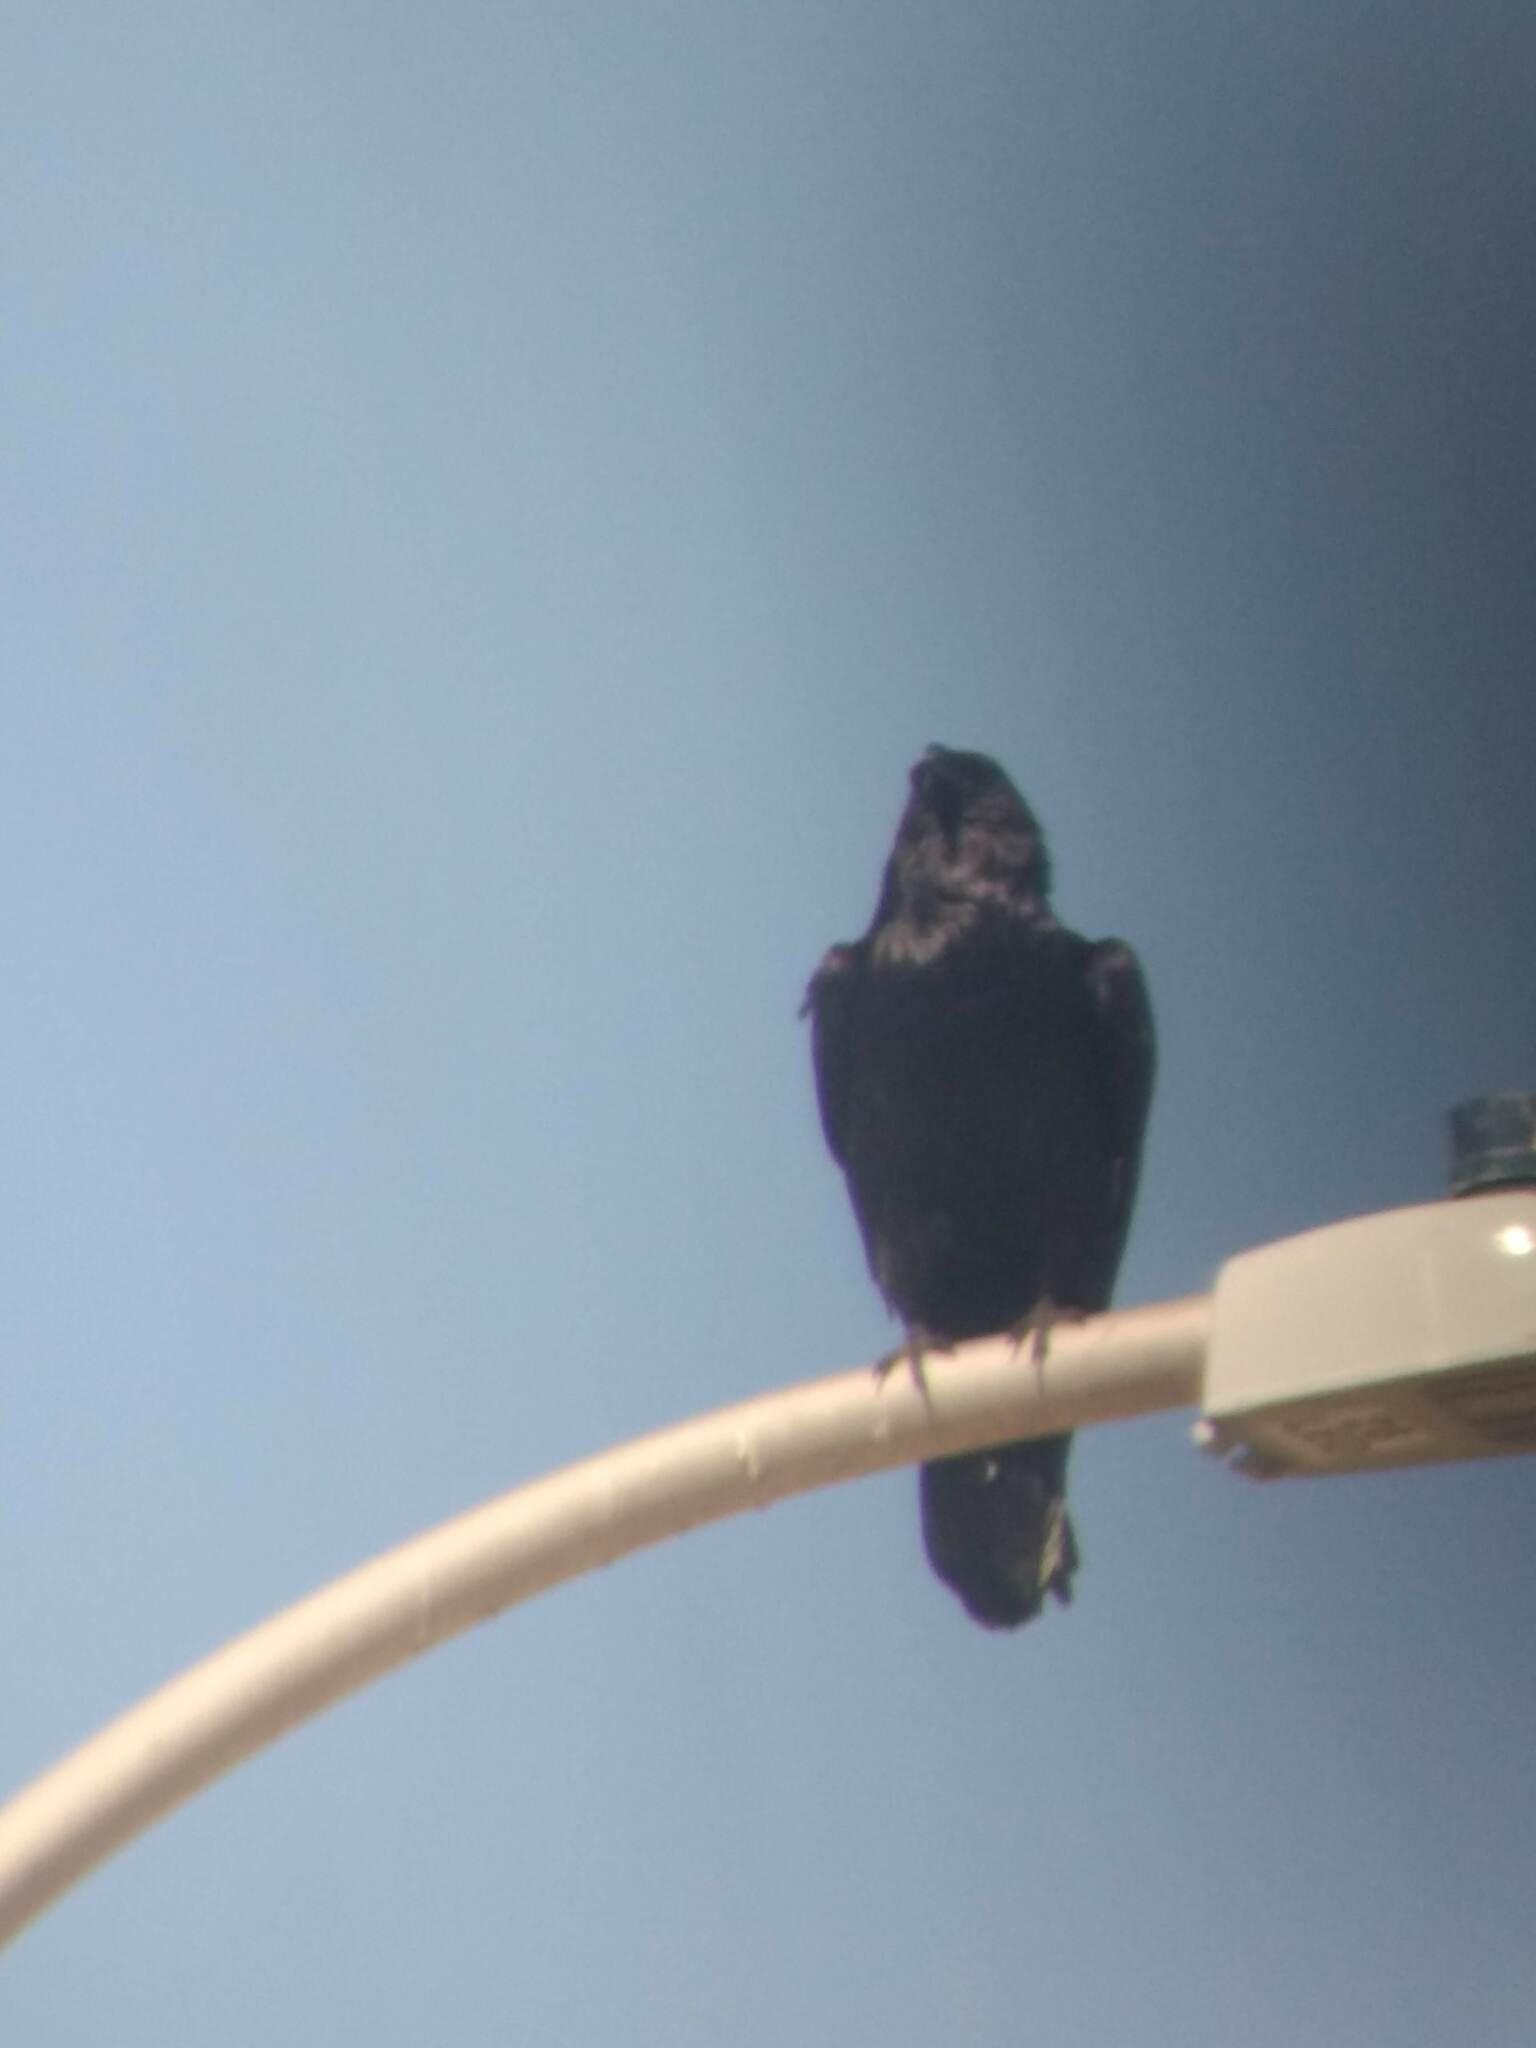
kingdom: Animalia
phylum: Chordata
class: Aves
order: Passeriformes
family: Corvidae
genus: Corvus
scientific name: Corvus corax
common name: Common raven
